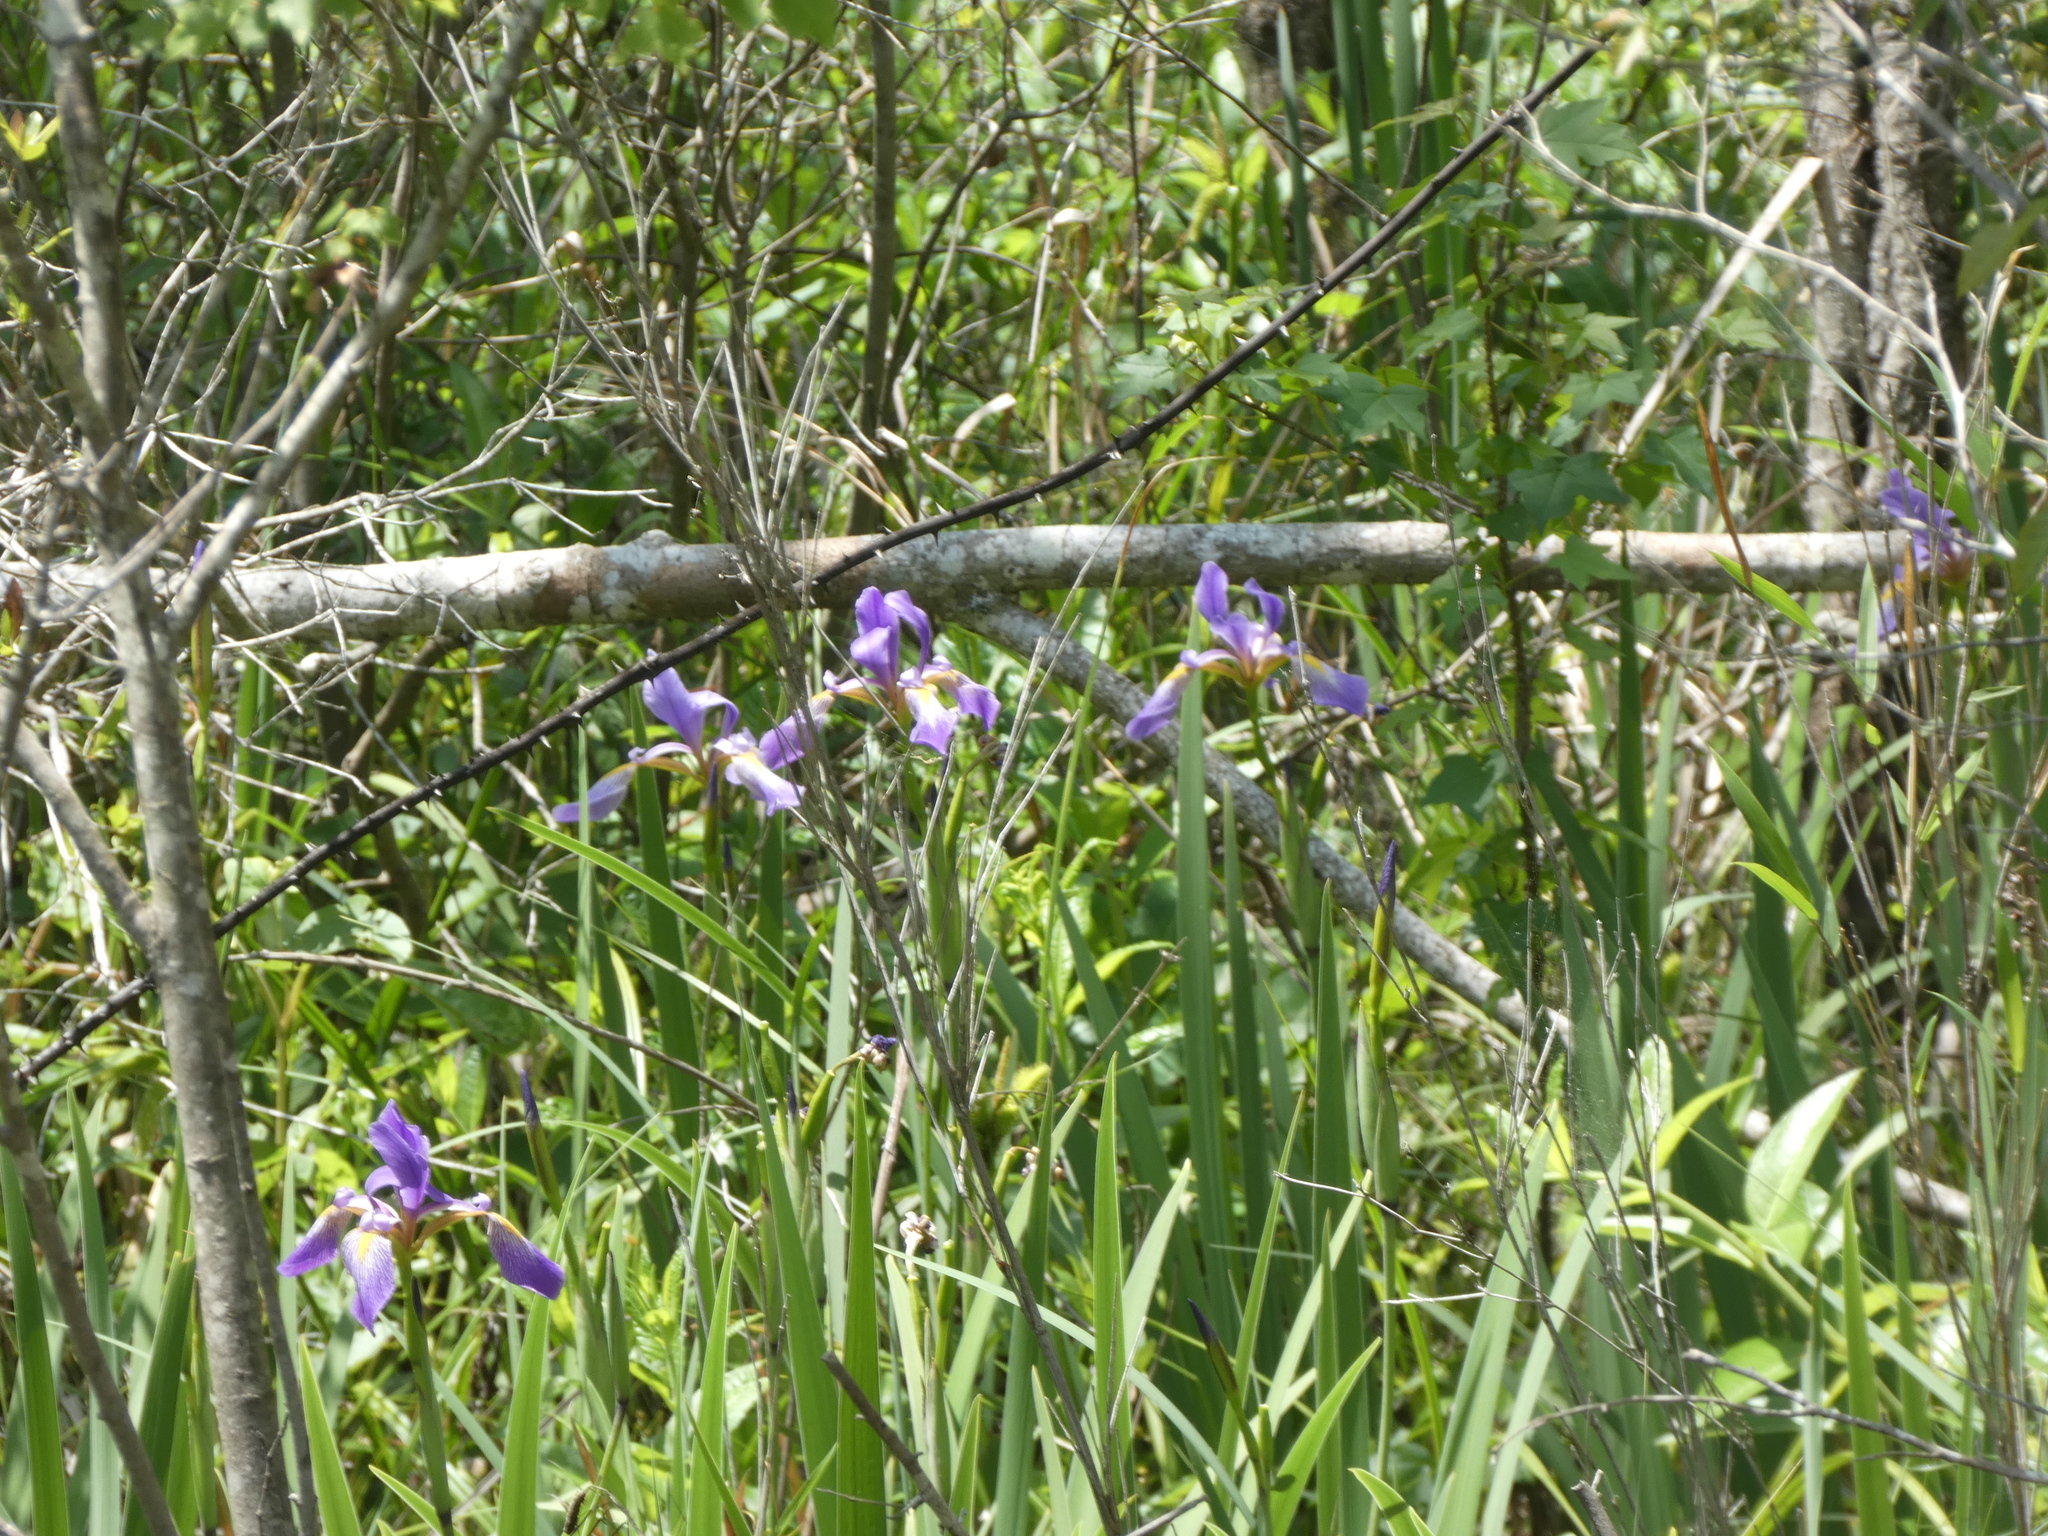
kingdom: Plantae
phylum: Tracheophyta
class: Liliopsida
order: Asparagales
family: Iridaceae
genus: Iris
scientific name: Iris virginica
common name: Southern blue flag
